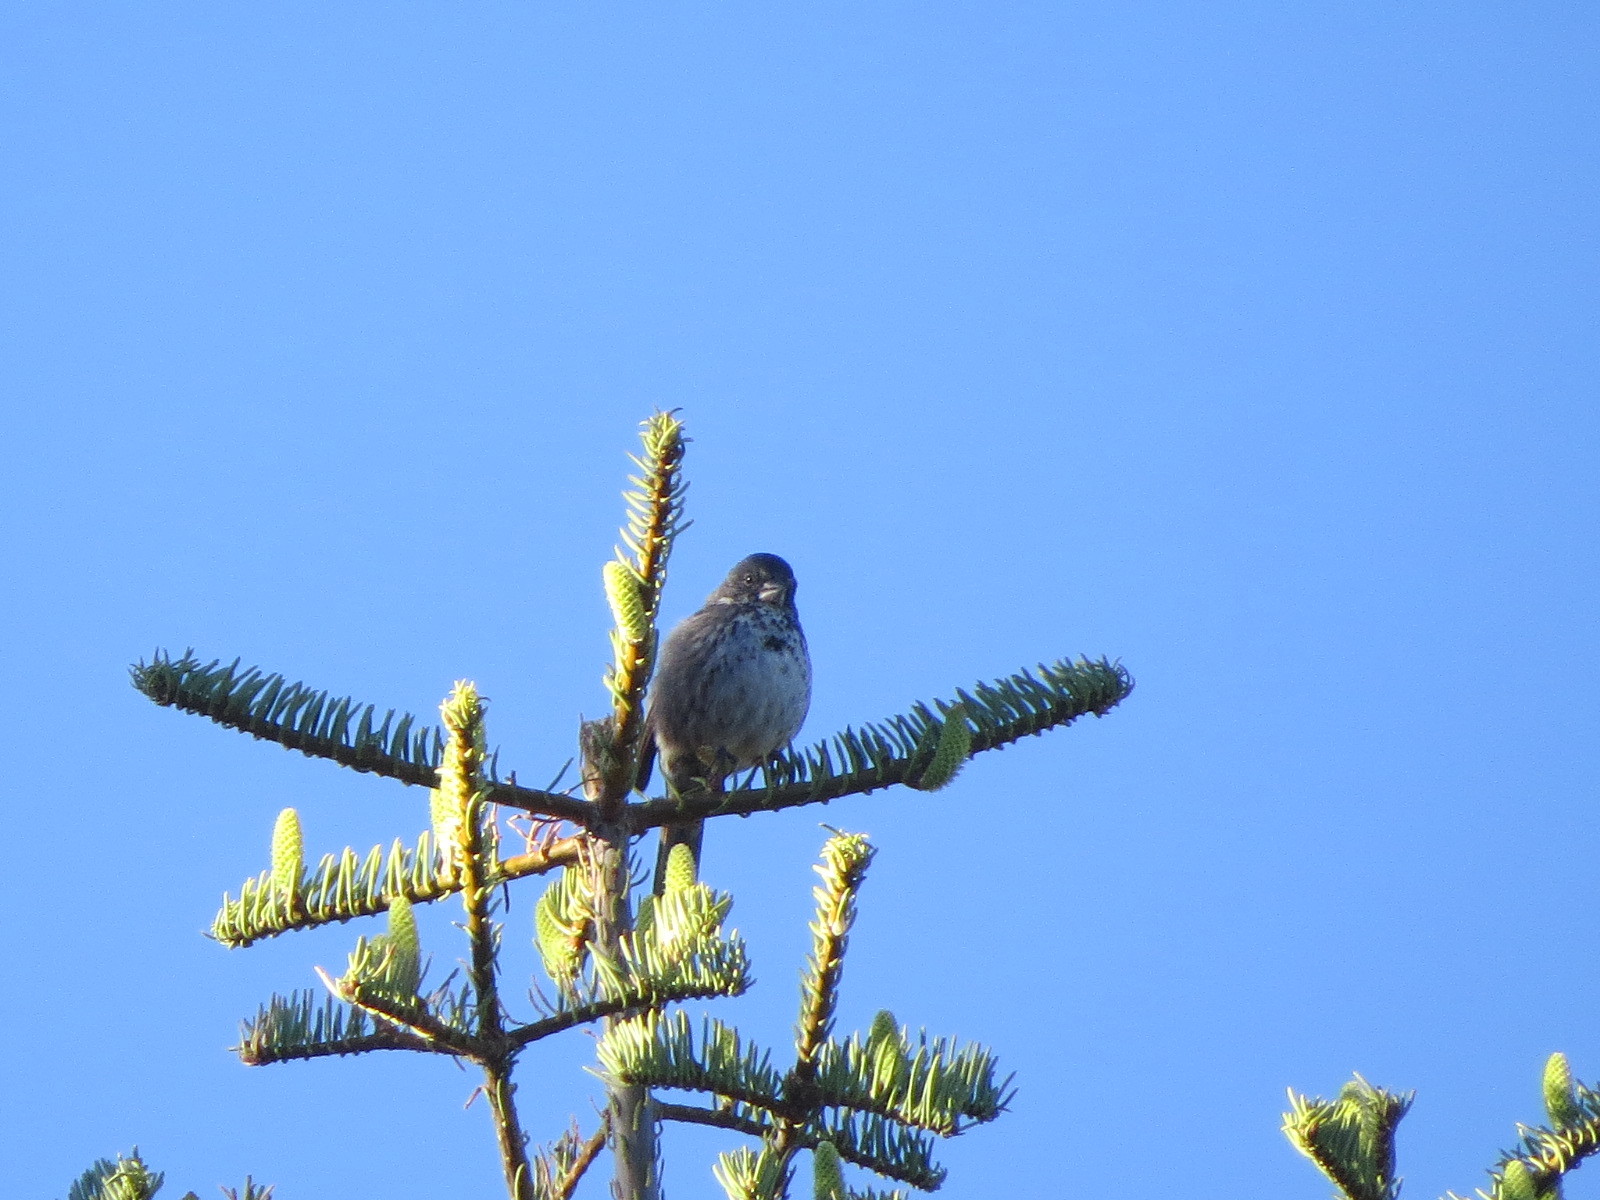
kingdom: Animalia
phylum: Chordata
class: Aves
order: Passeriformes
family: Passerellidae
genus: Passerella
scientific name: Passerella iliaca
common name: Fox sparrow
